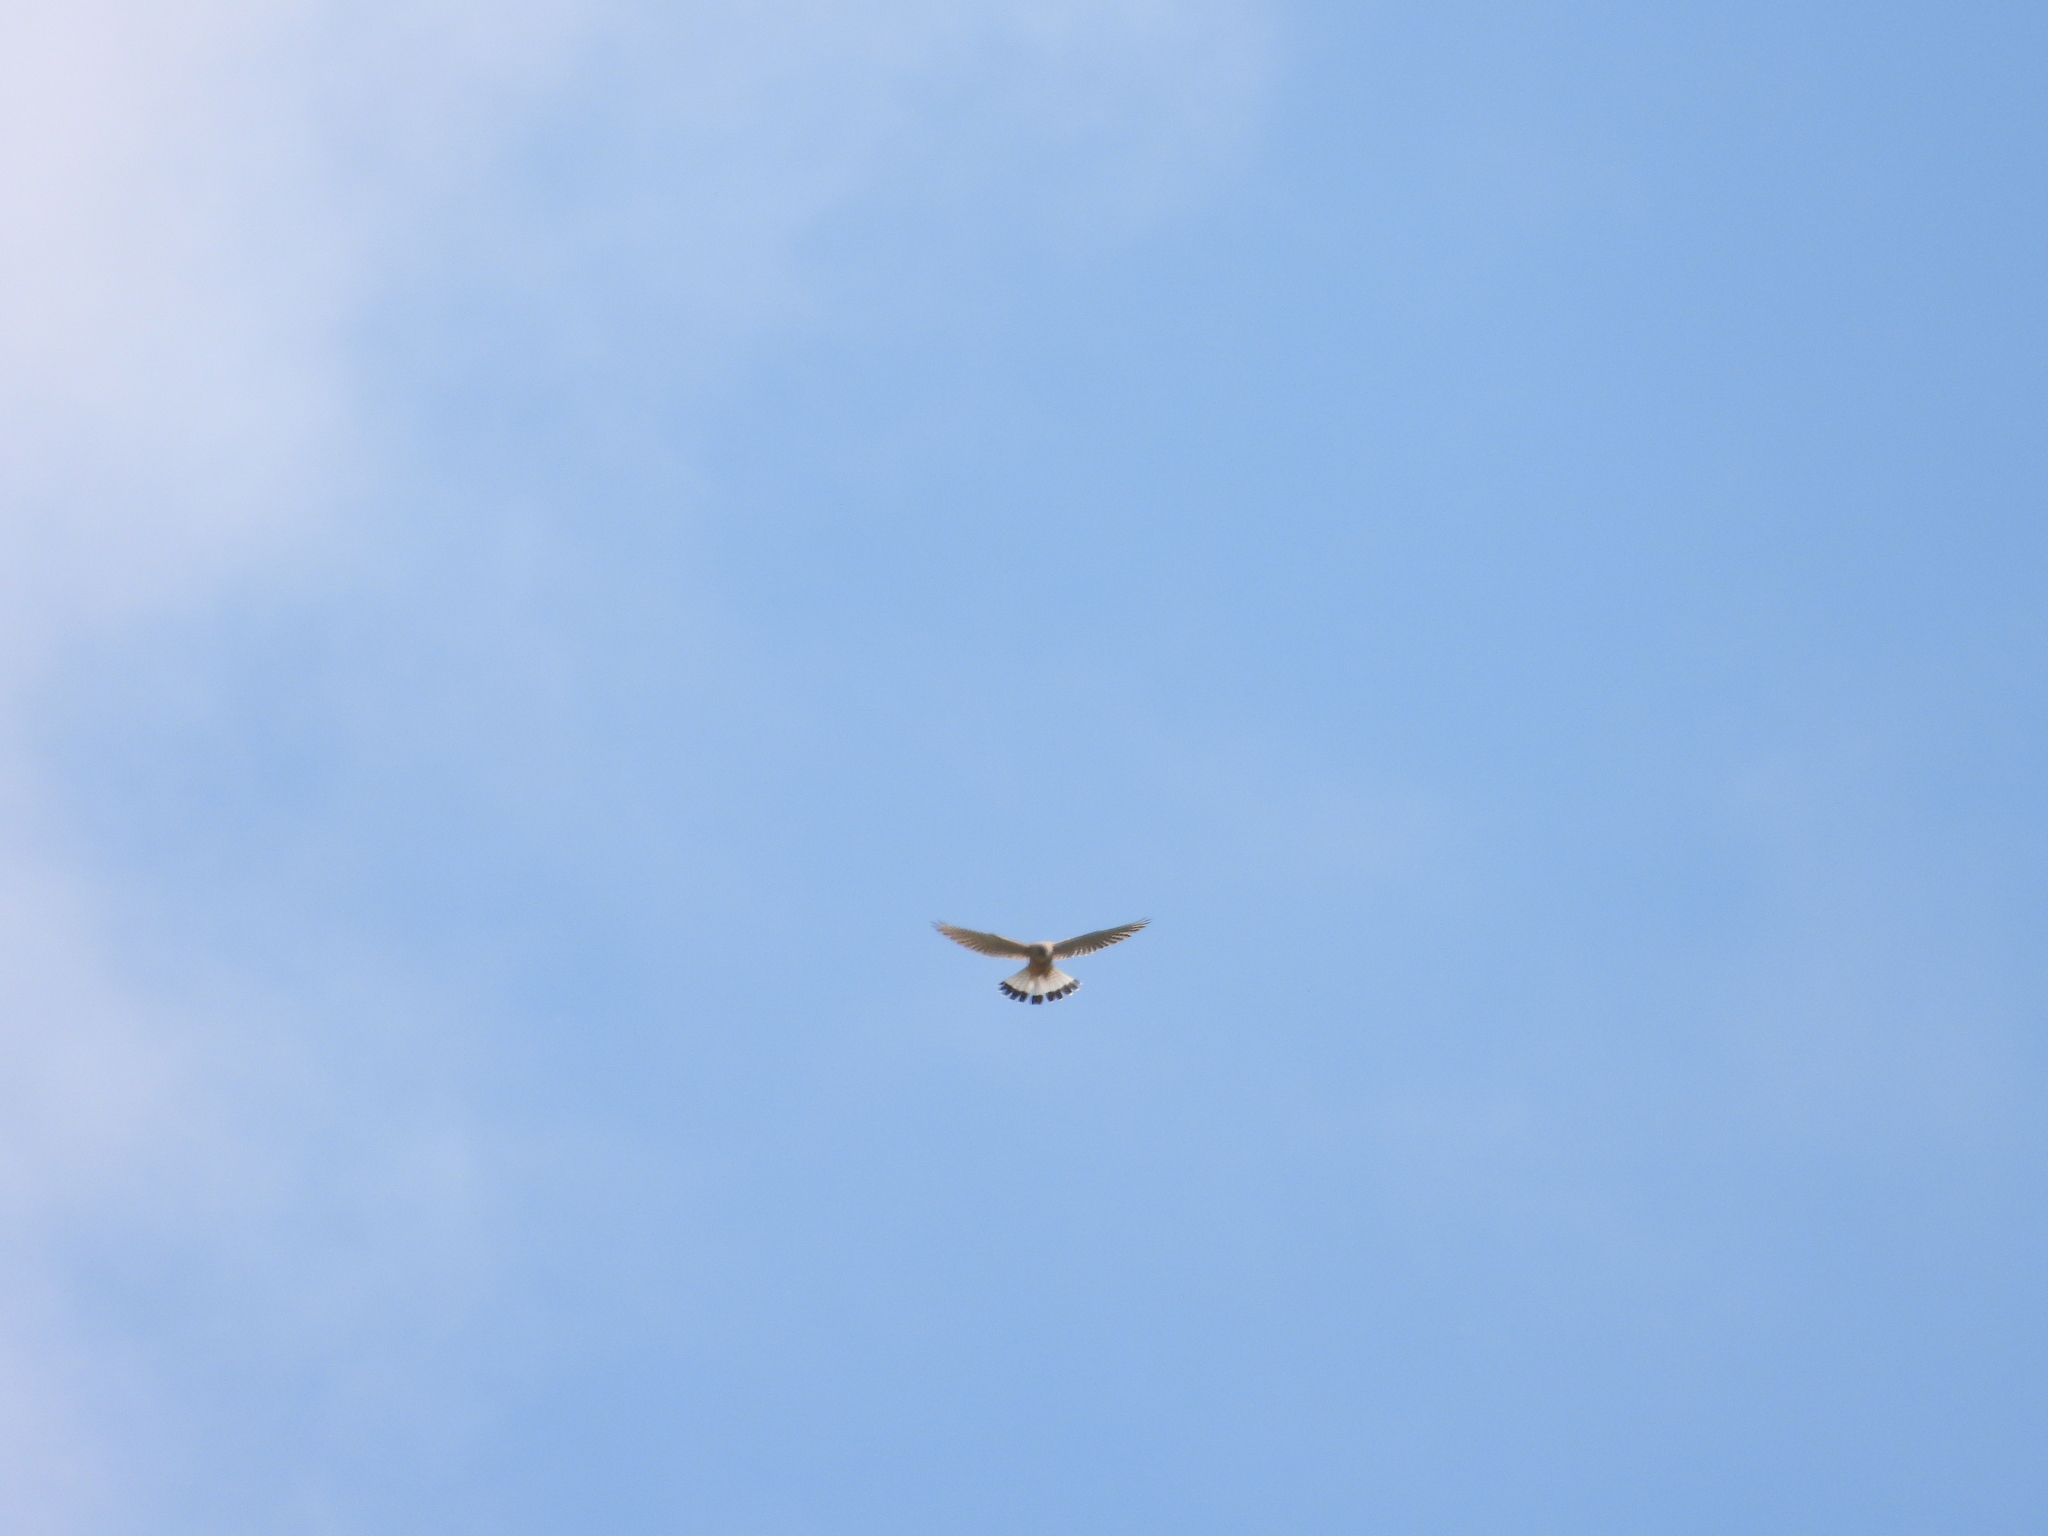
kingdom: Animalia
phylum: Chordata
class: Aves
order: Falconiformes
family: Falconidae
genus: Falco
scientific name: Falco tinnunculus
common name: Common kestrel
